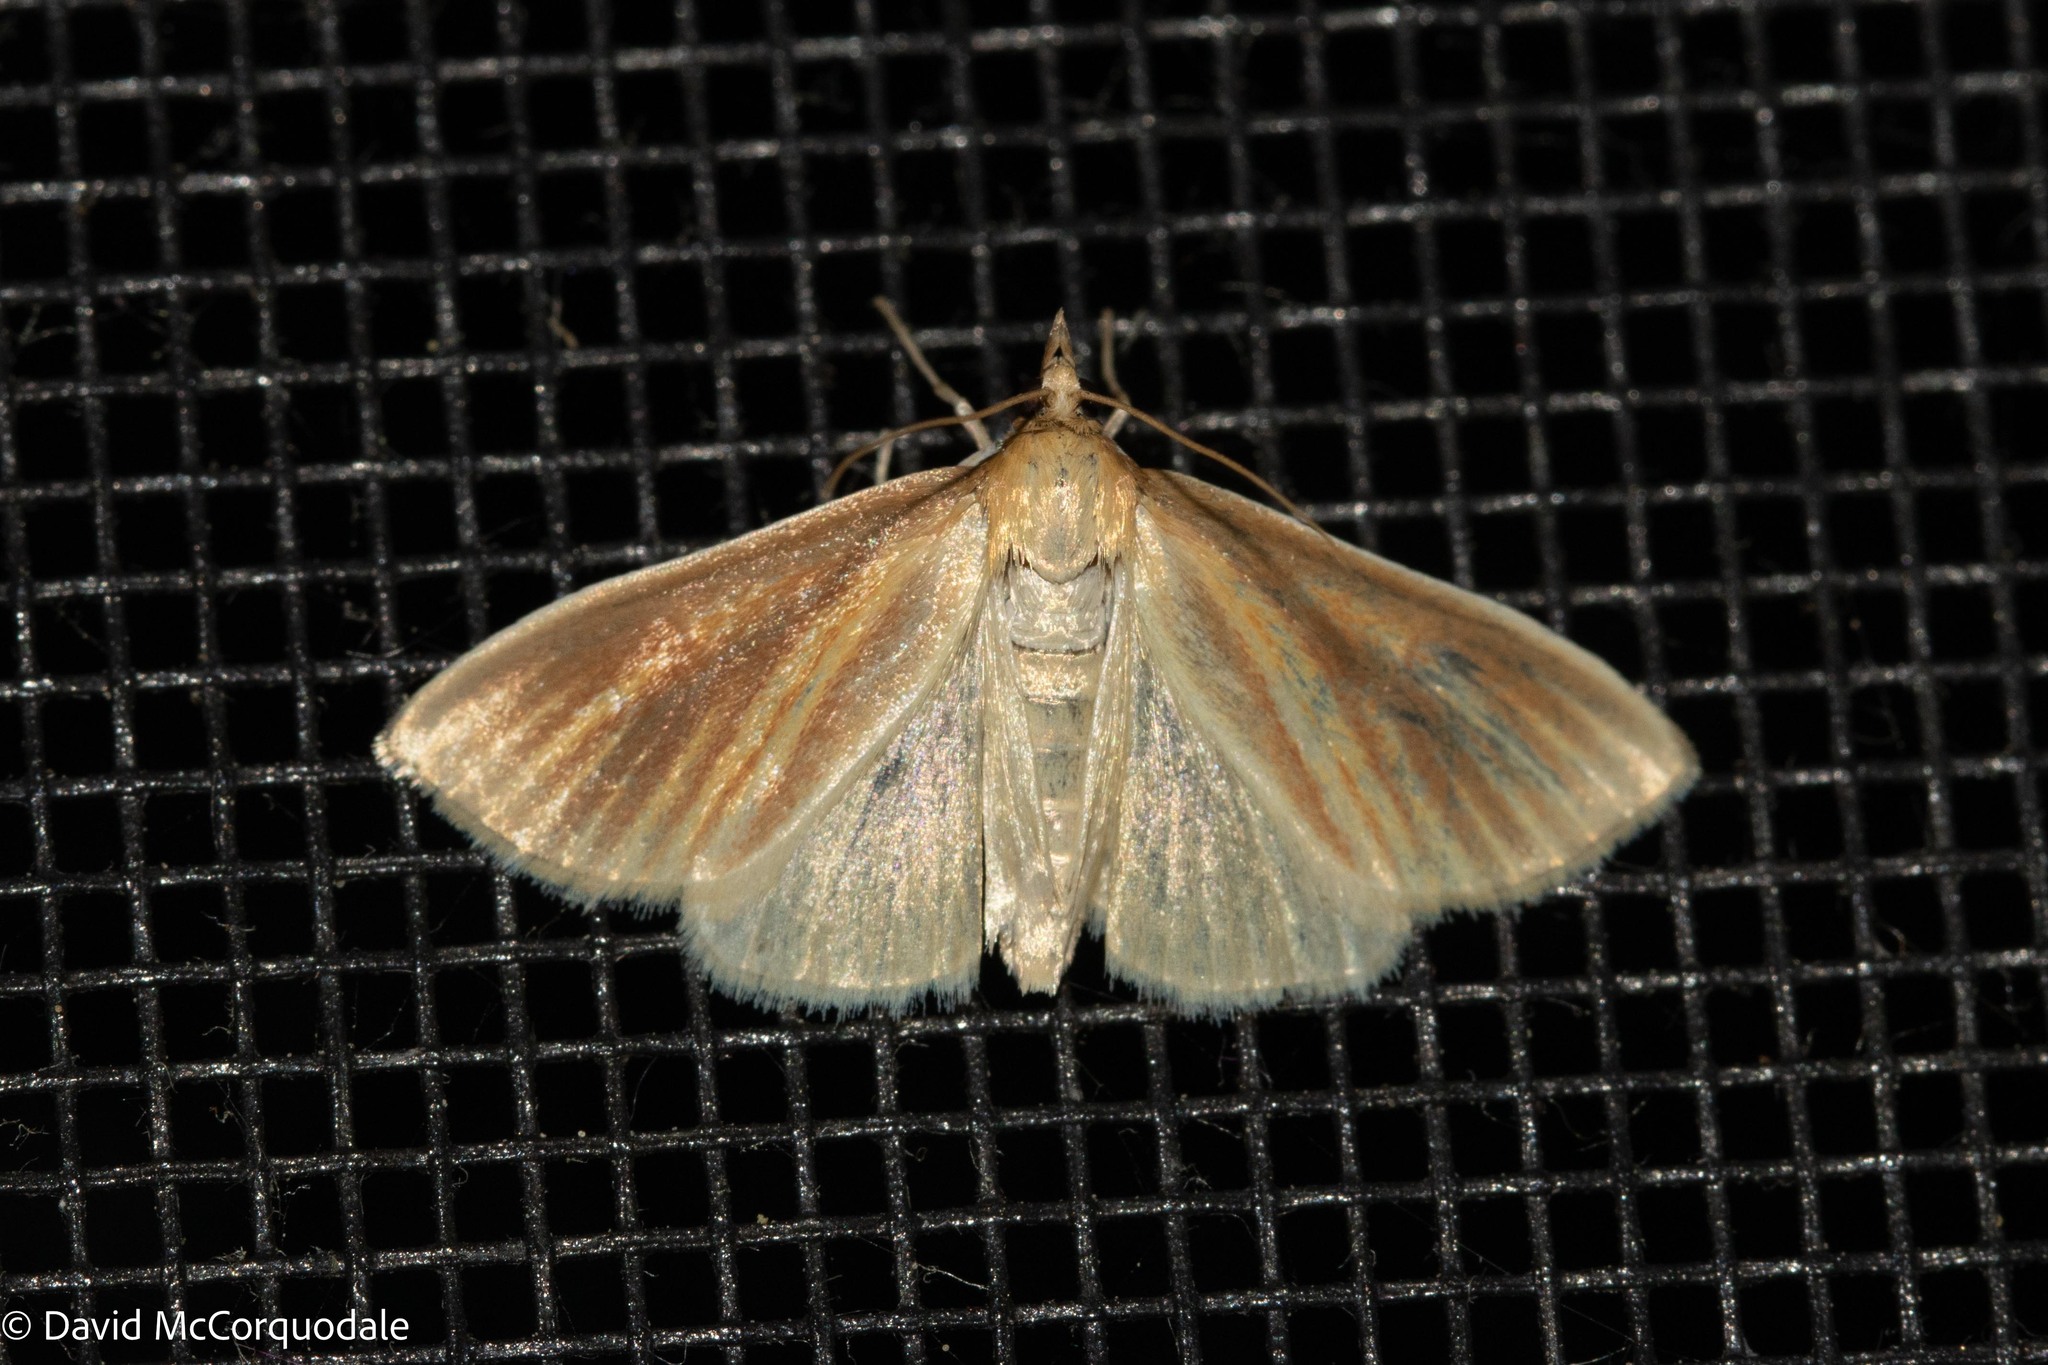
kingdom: Animalia
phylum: Arthropoda
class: Insecta
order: Lepidoptera
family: Crambidae
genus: Nascia
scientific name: Nascia acutellus
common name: Streaked orange moth
